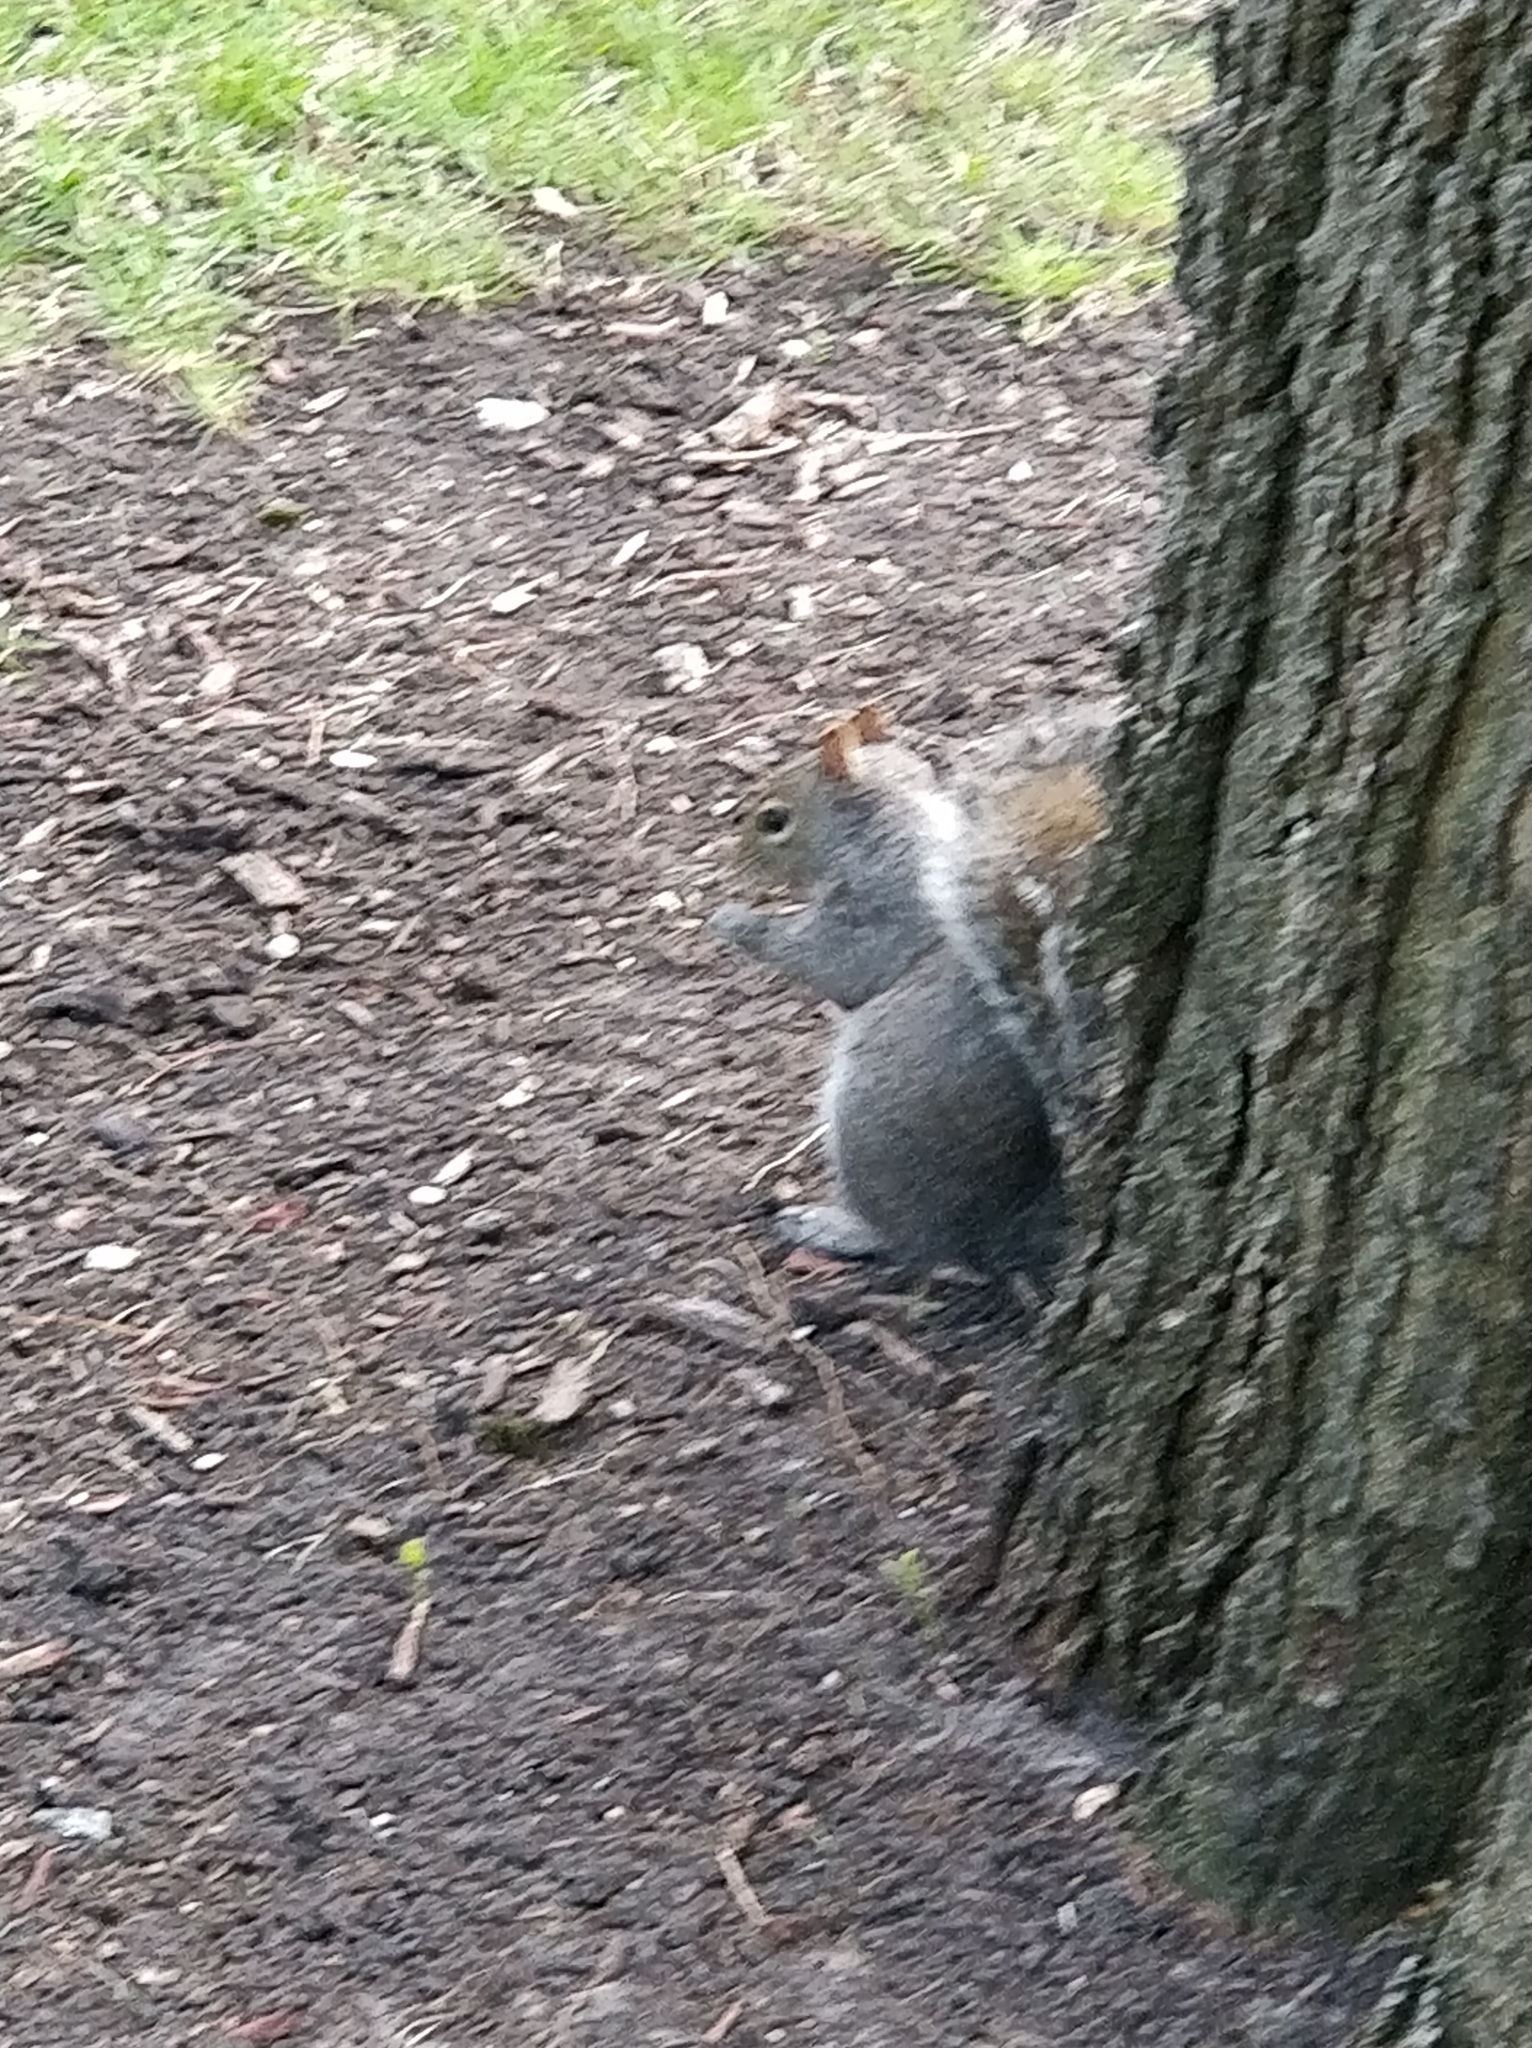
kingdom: Animalia
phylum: Chordata
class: Mammalia
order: Rodentia
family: Sciuridae
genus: Sciurus
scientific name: Sciurus carolinensis
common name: Eastern gray squirrel
